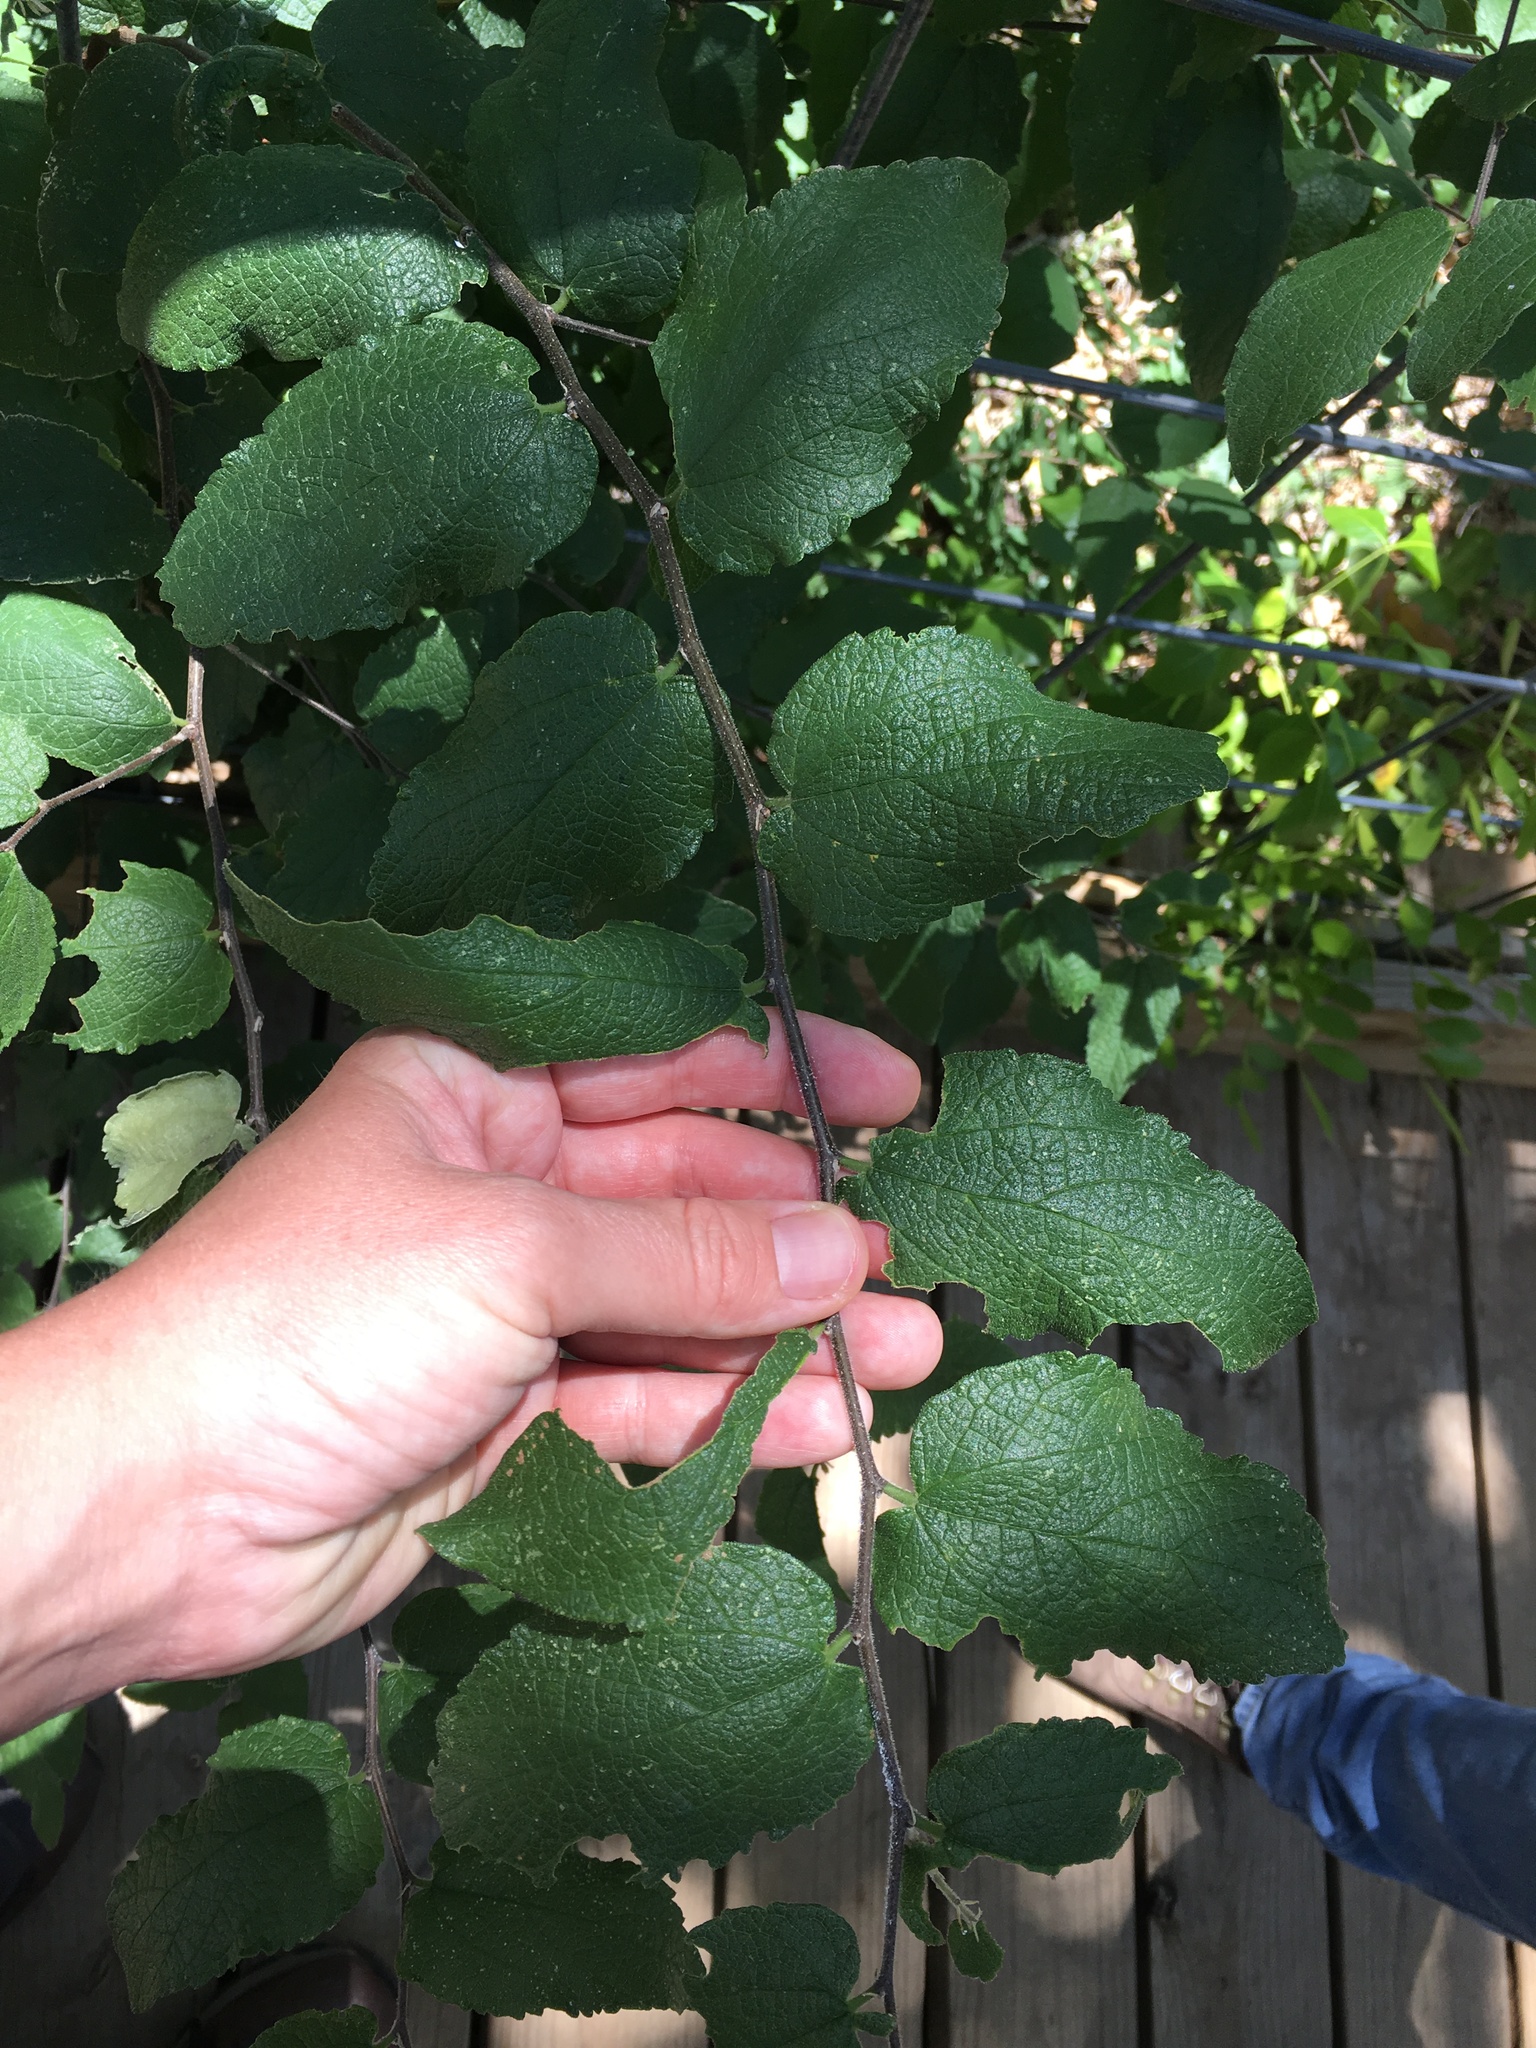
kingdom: Plantae
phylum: Tracheophyta
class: Magnoliopsida
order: Rosales
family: Cannabaceae
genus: Celtis
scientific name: Celtis reticulata
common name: Netleaf hackberry
